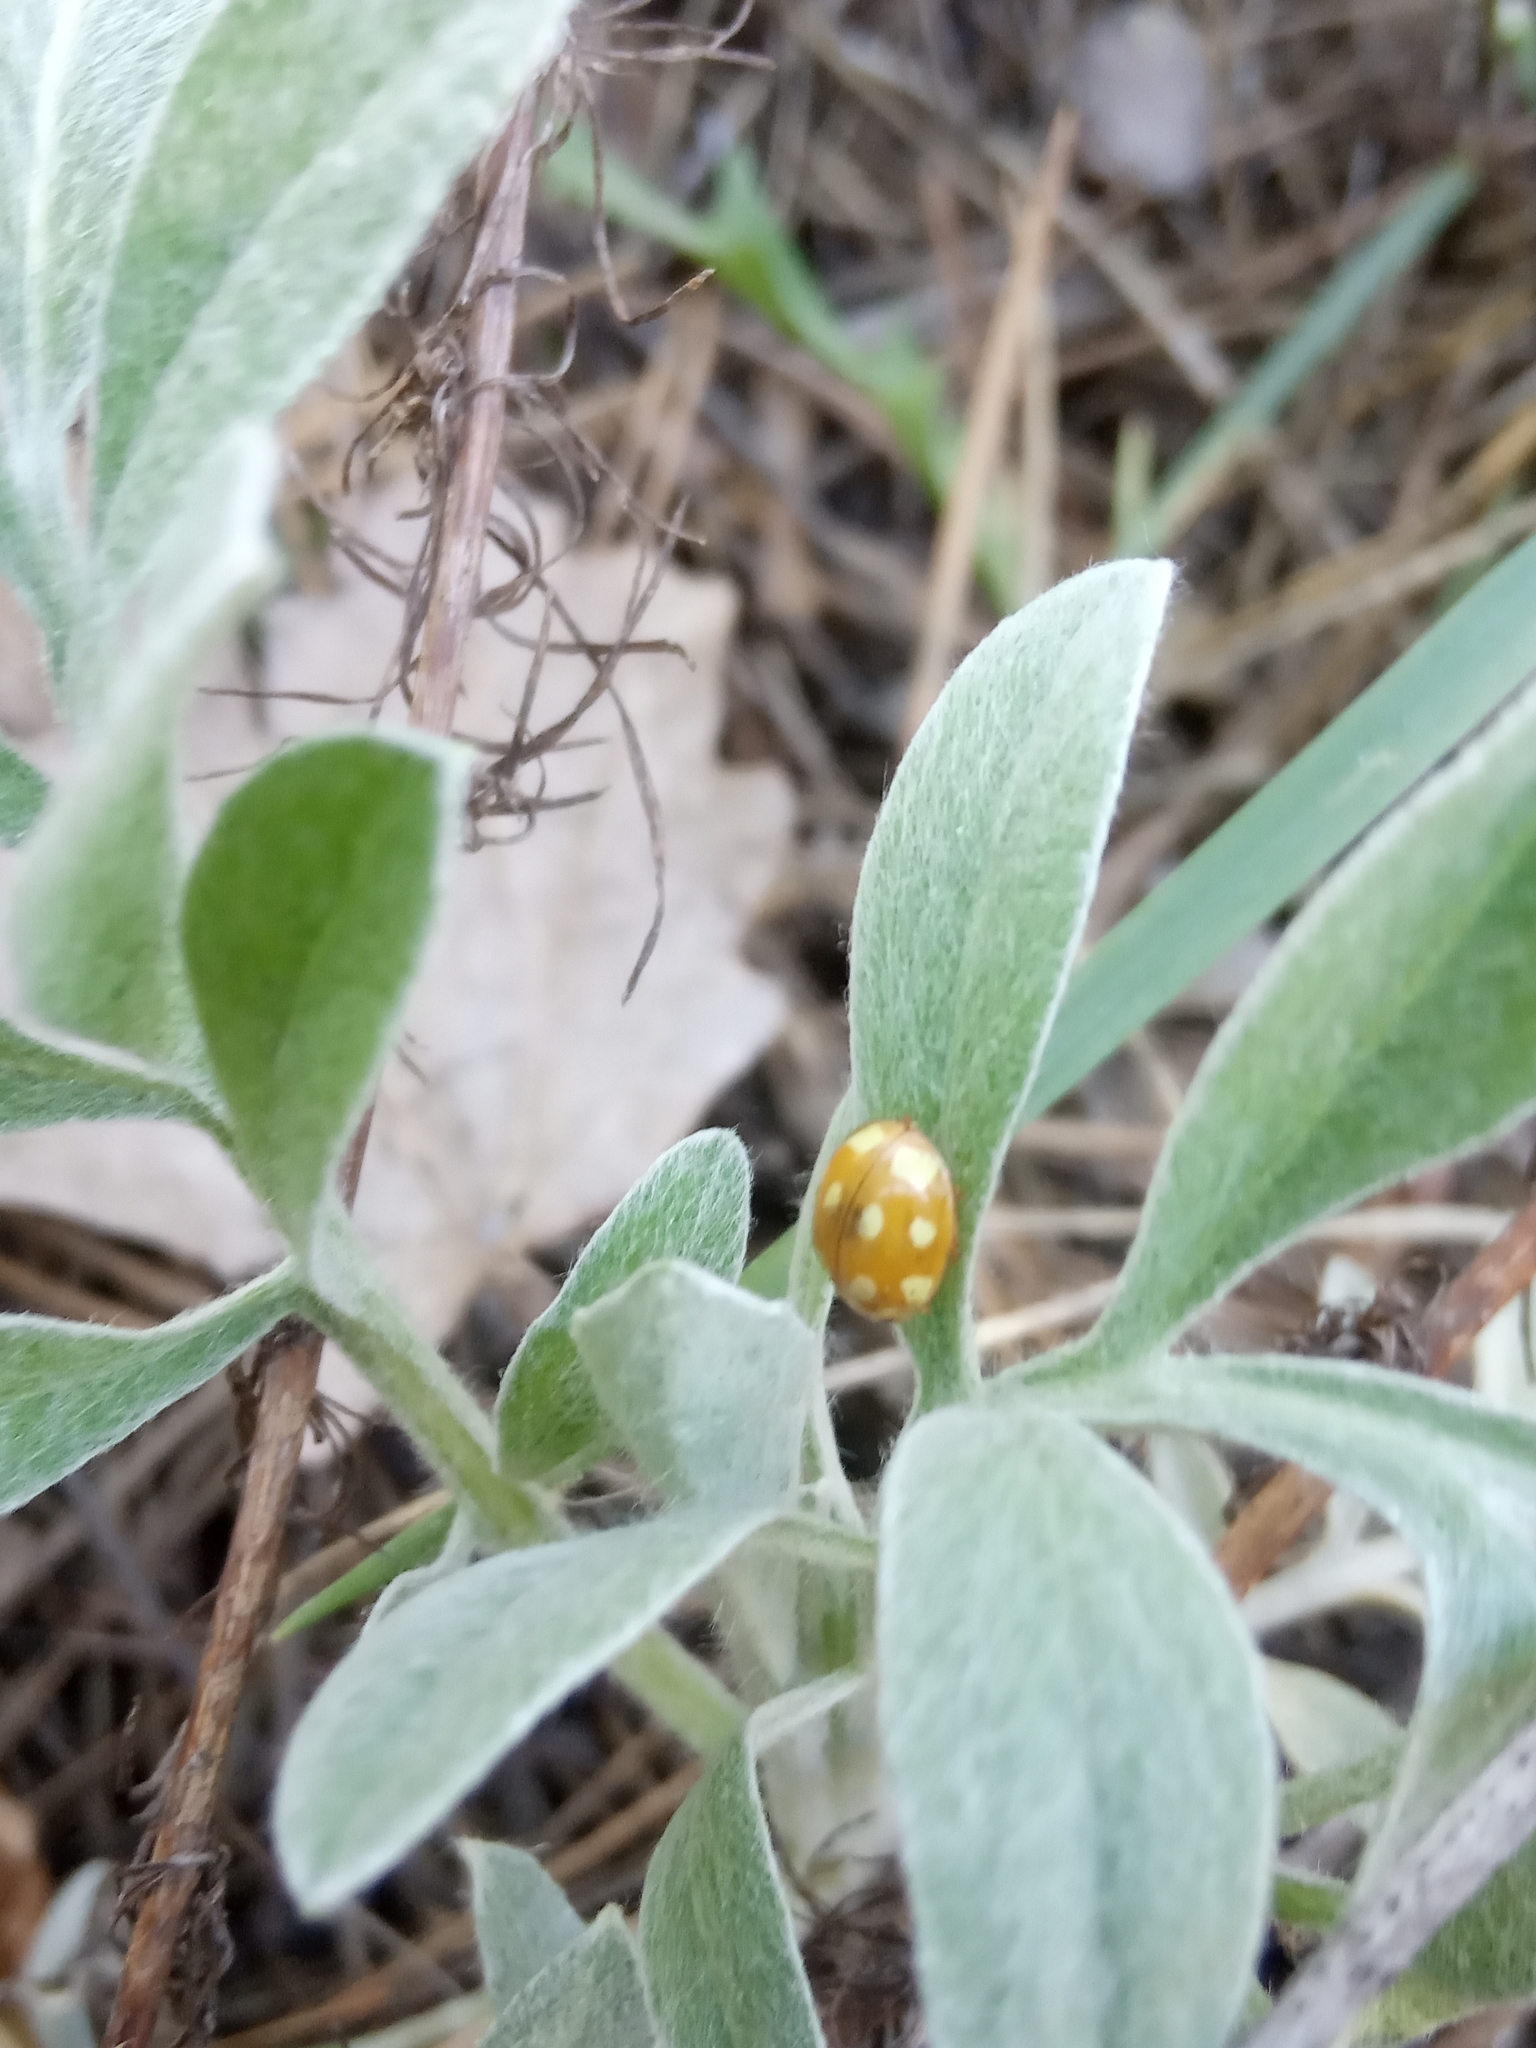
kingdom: Animalia
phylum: Arthropoda
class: Insecta
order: Coleoptera
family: Coccinellidae
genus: Calvia
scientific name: Calvia decemguttata
